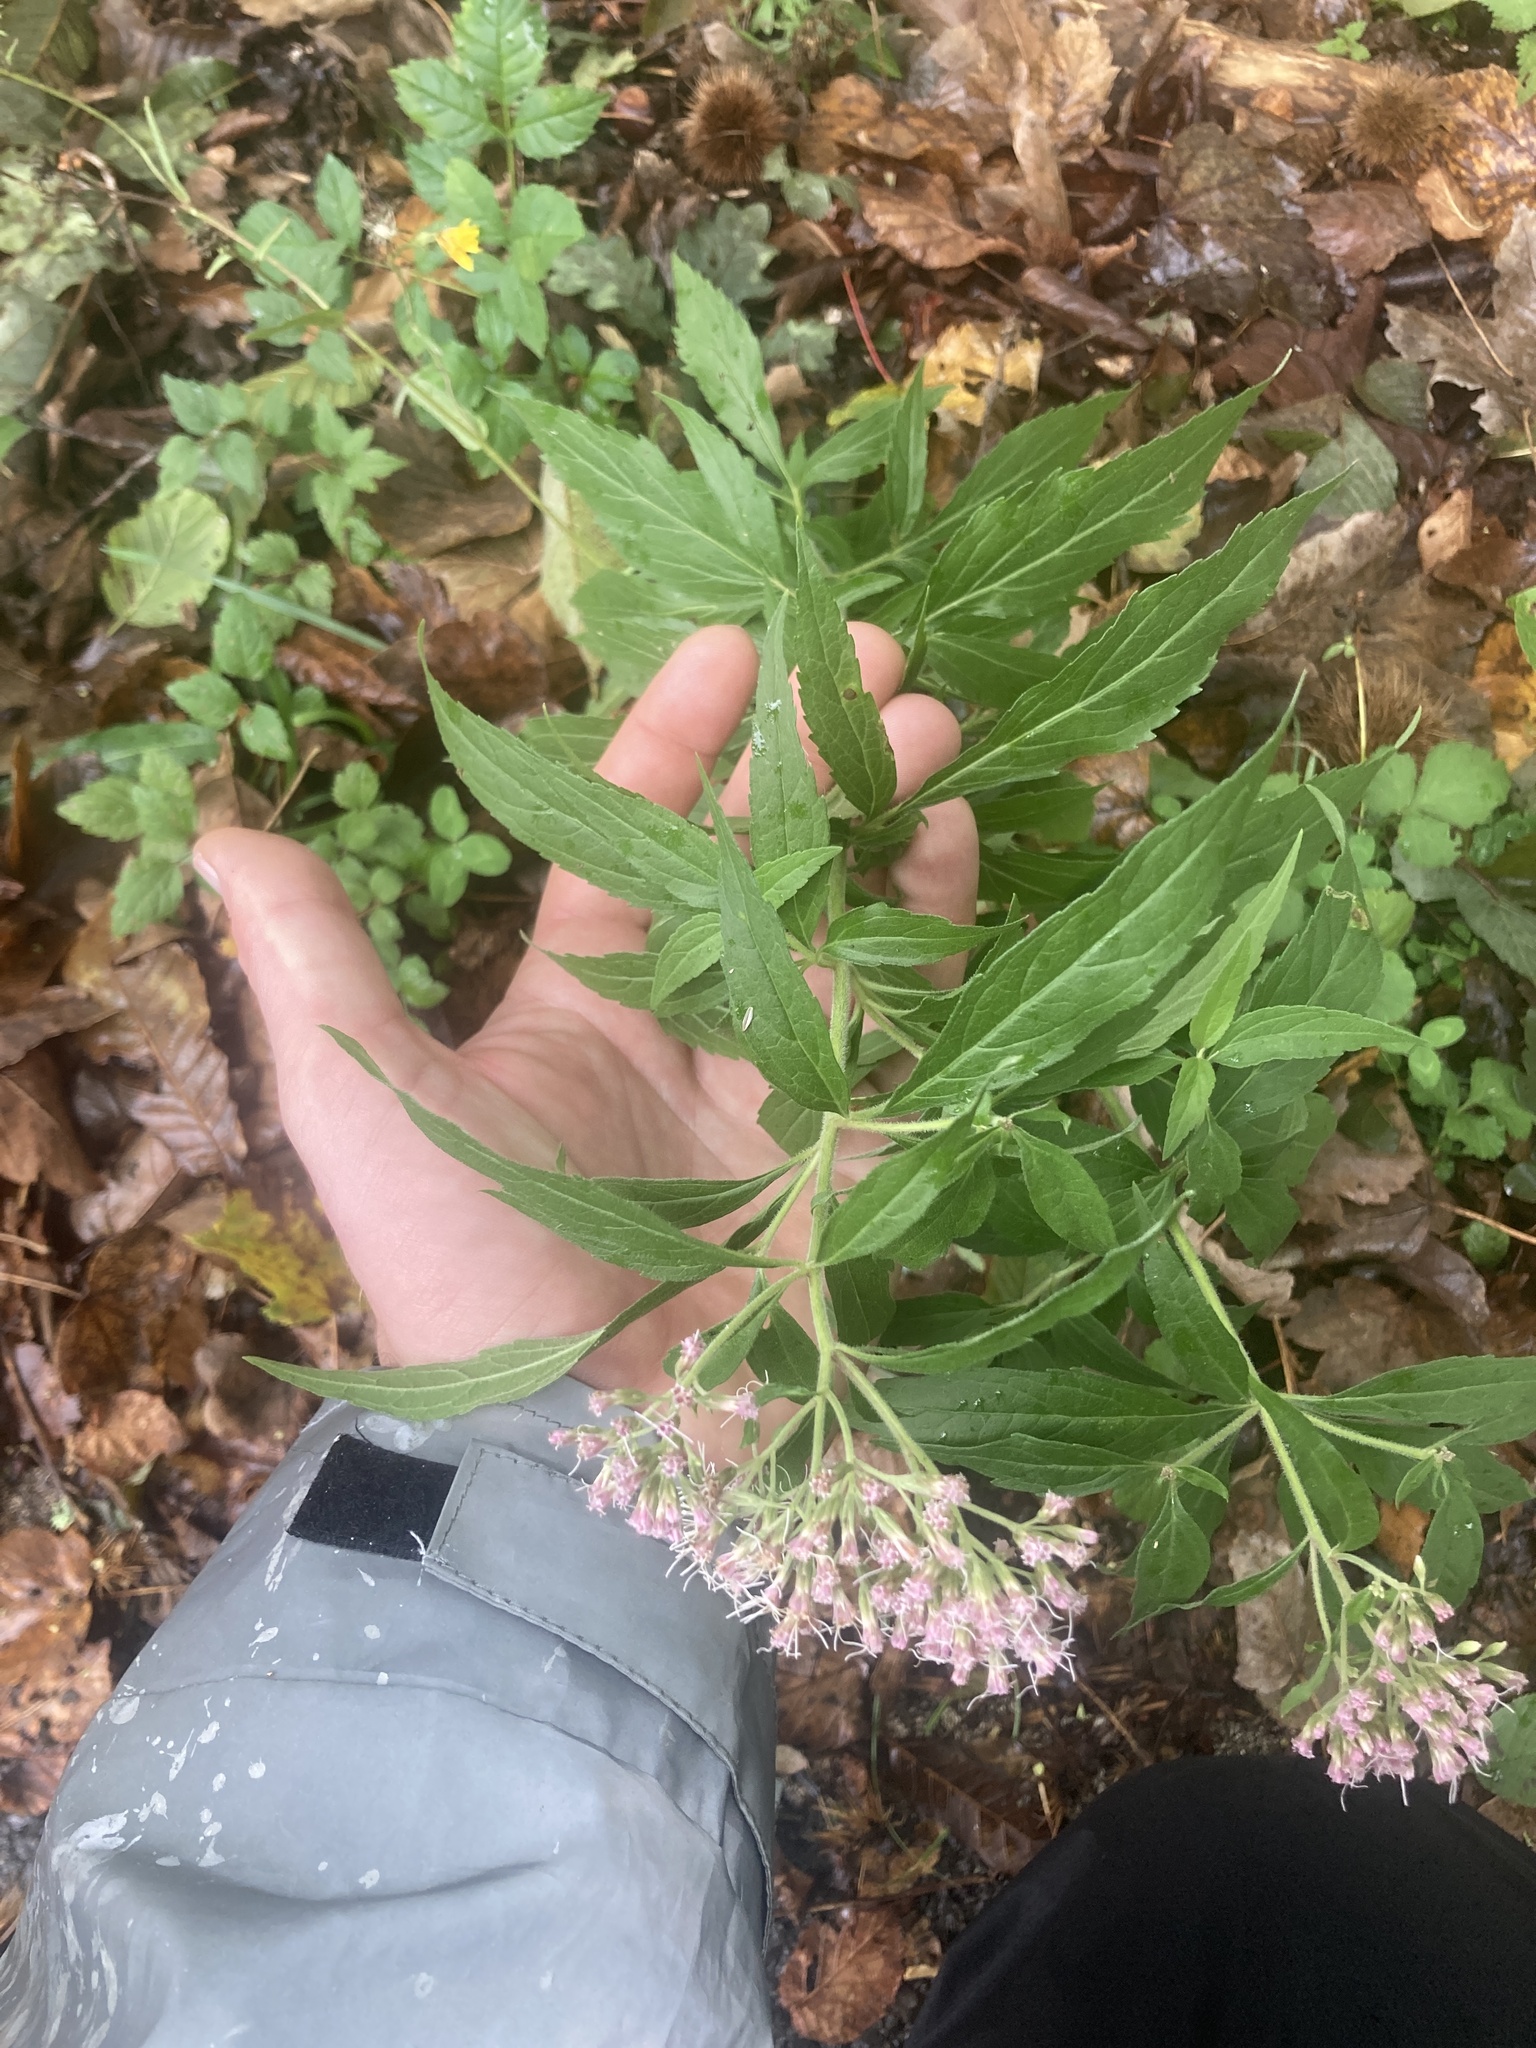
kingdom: Plantae
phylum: Tracheophyta
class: Magnoliopsida
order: Asterales
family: Asteraceae
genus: Eupatorium
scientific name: Eupatorium cannabinum
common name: Hemp-agrimony
